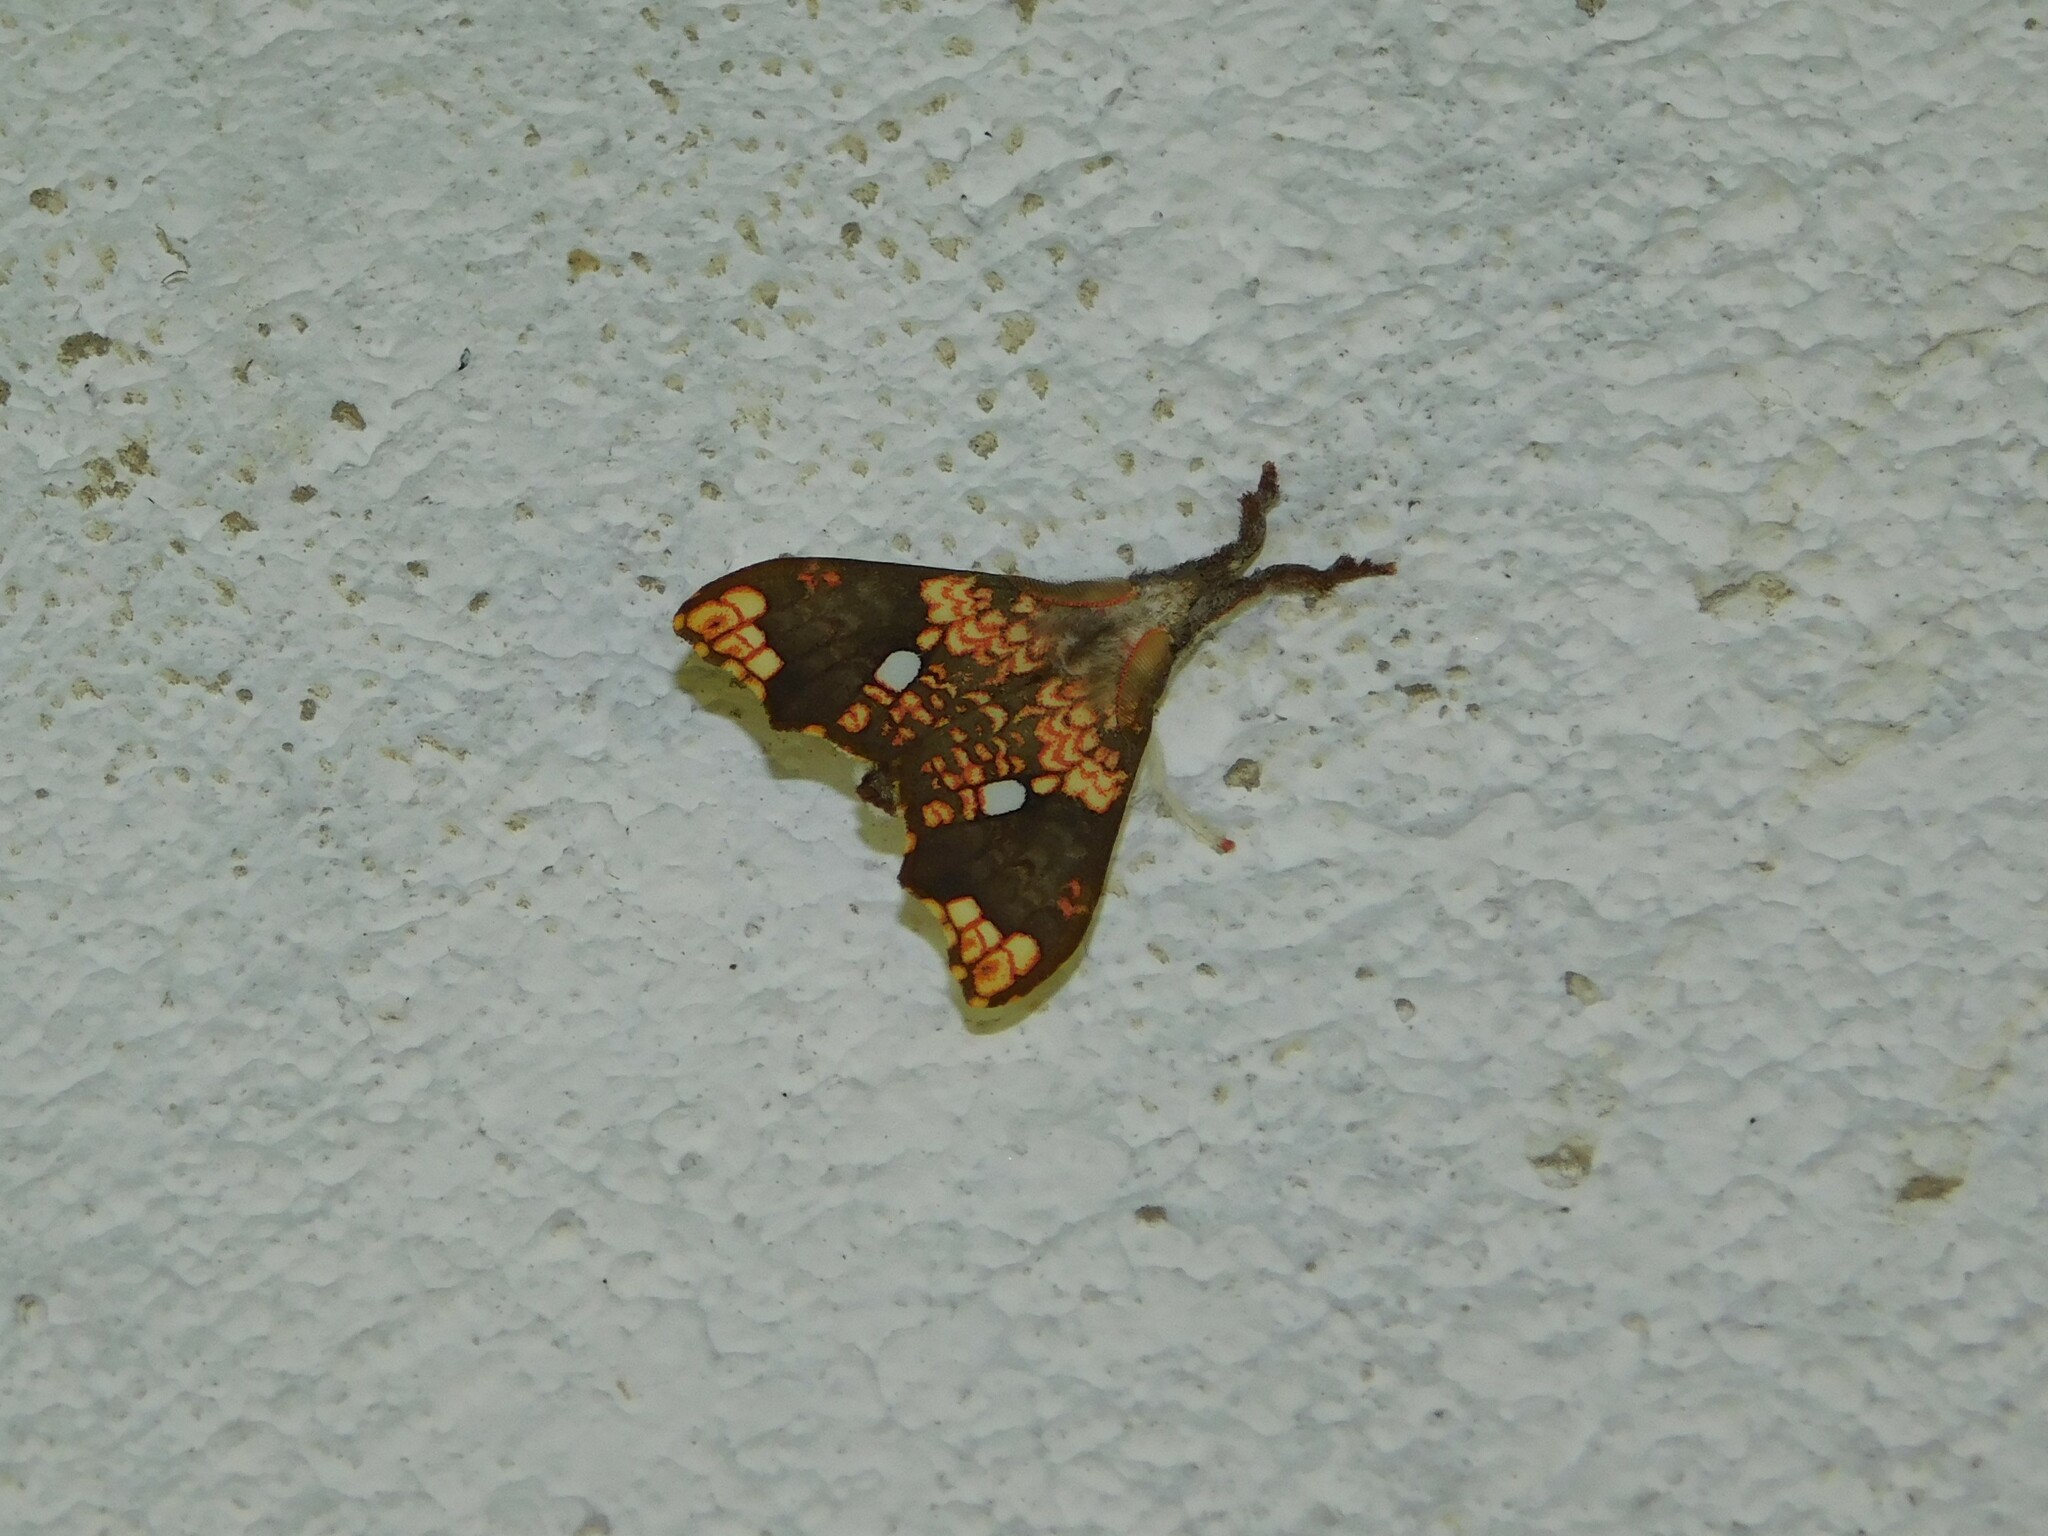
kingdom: Animalia
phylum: Arthropoda
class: Insecta
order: Lepidoptera
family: Erebidae
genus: Lomadonta
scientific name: Lomadonta erythrina
